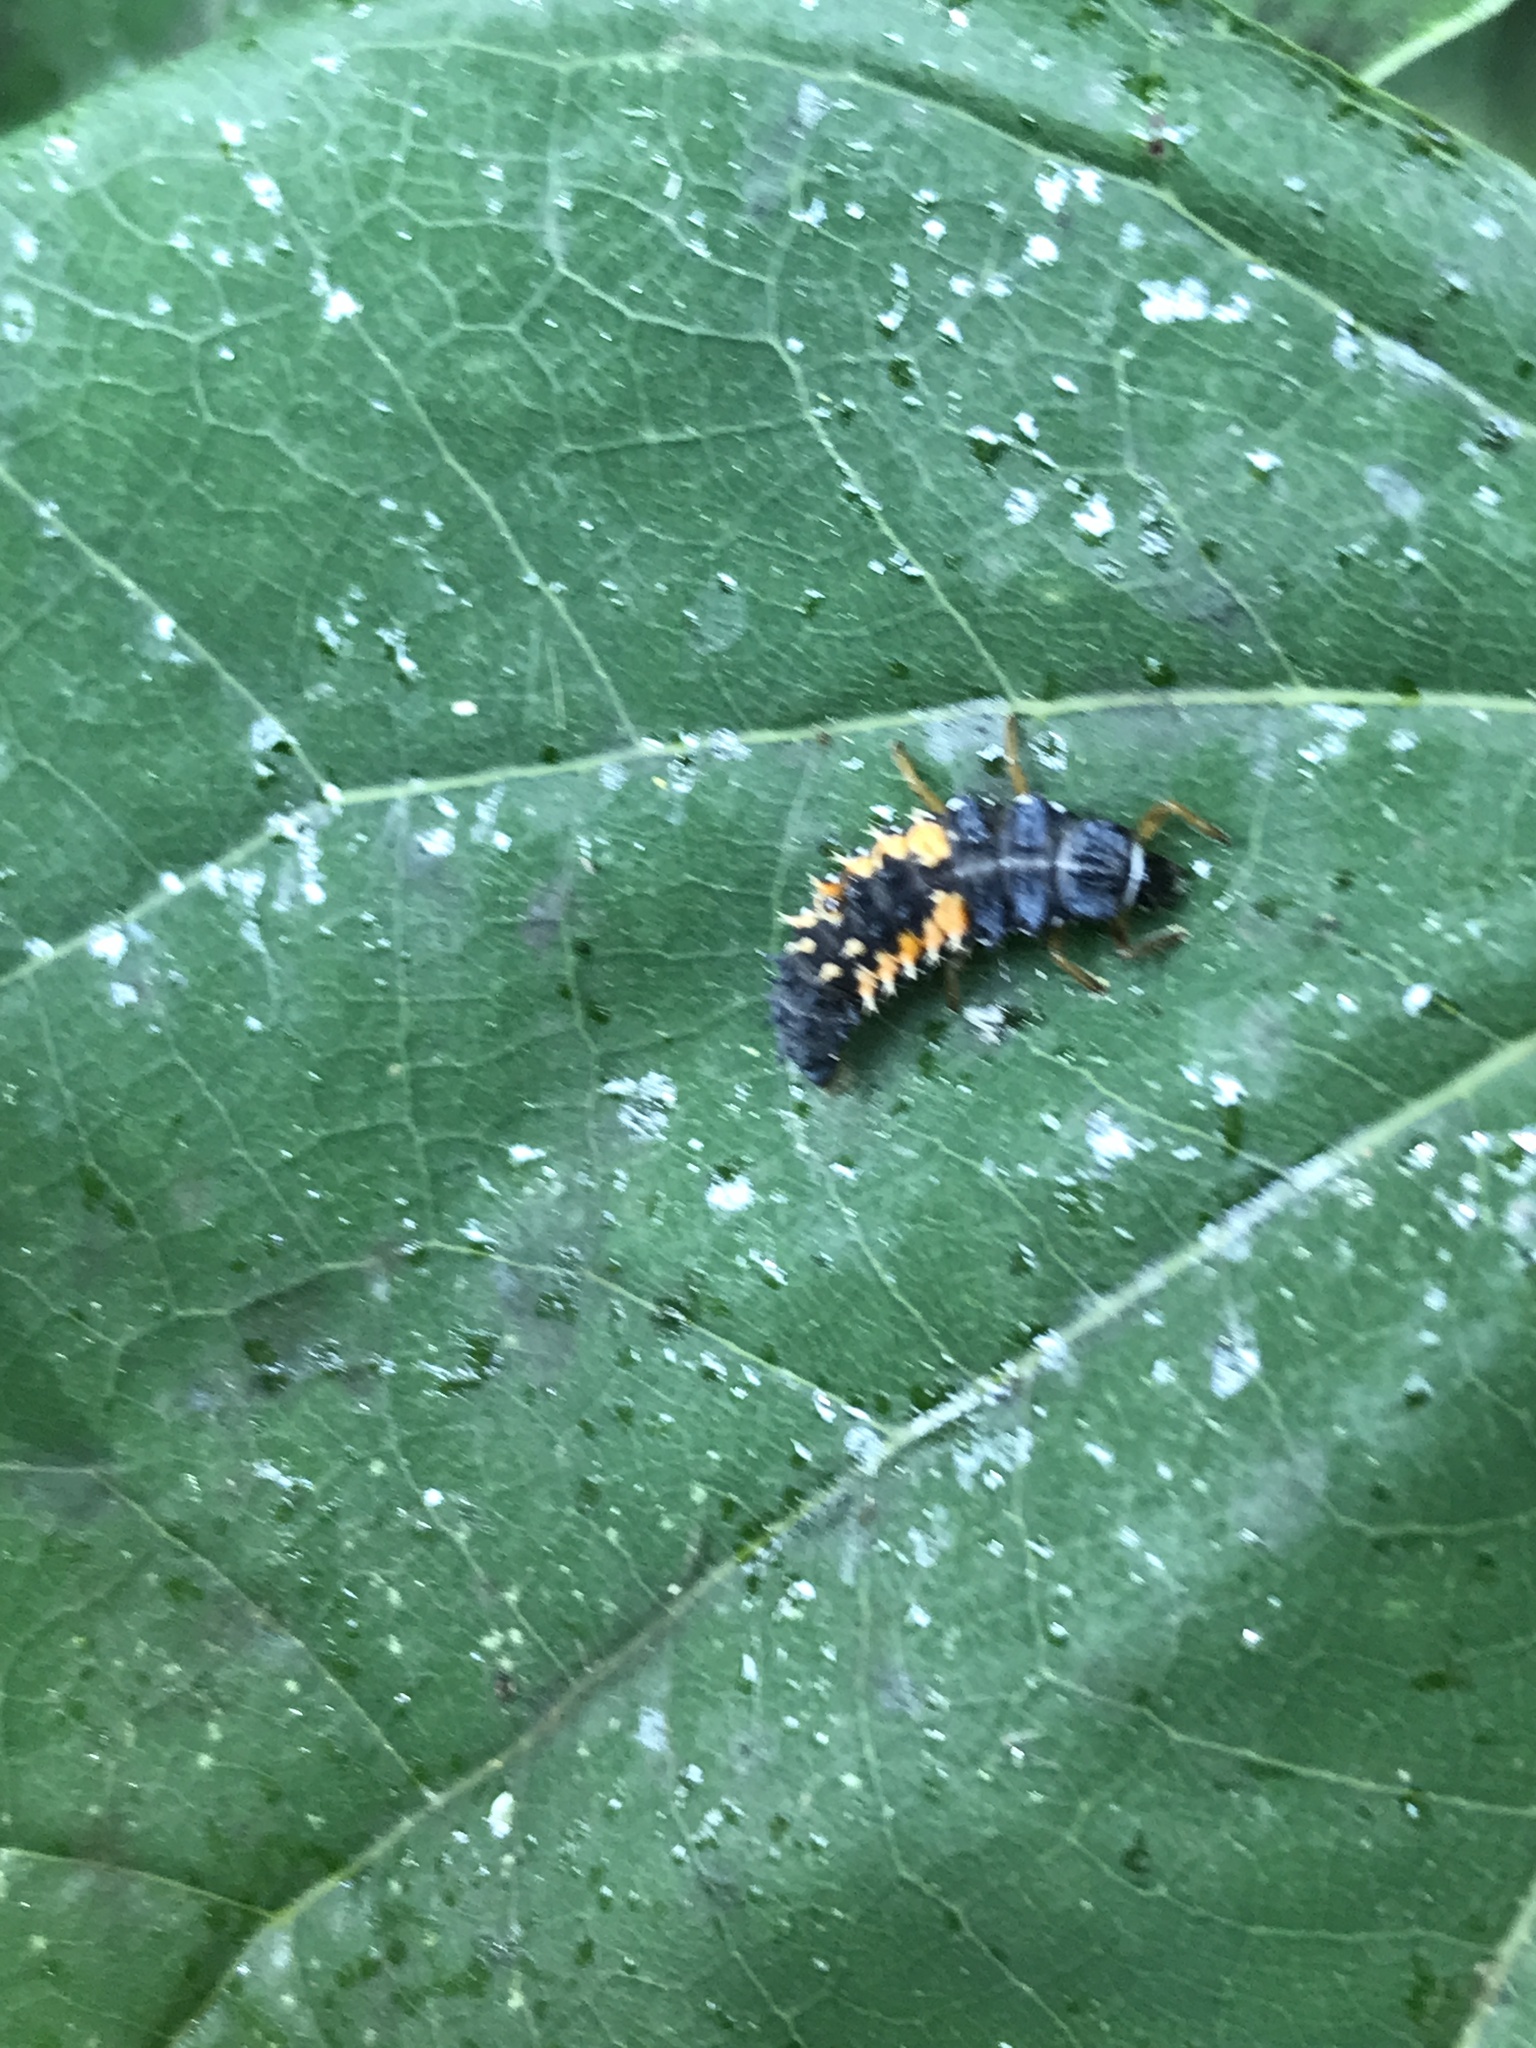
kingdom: Animalia
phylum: Arthropoda
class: Insecta
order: Coleoptera
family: Coccinellidae
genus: Harmonia
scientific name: Harmonia axyridis
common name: Harlequin ladybird
